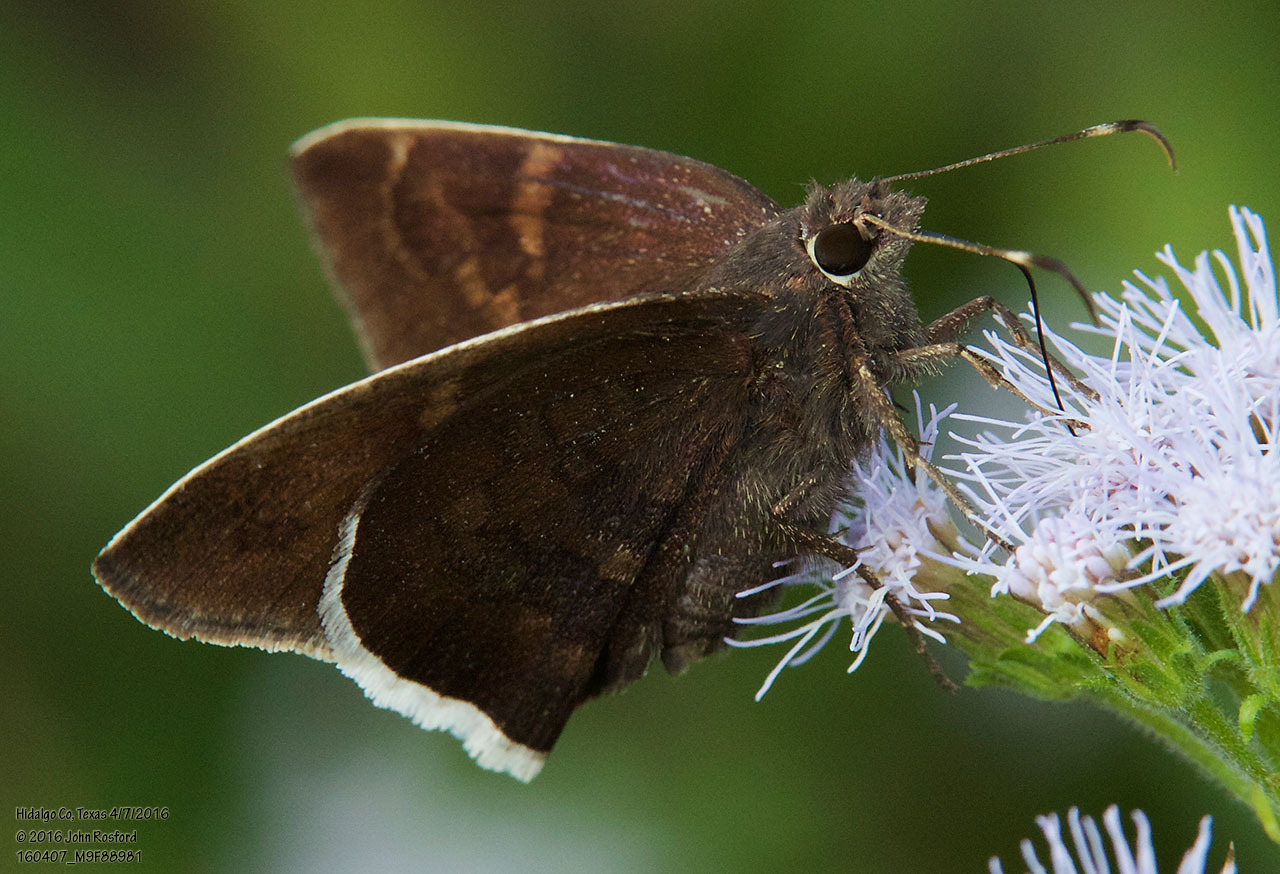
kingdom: Animalia
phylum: Arthropoda
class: Insecta
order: Lepidoptera
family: Hesperiidae
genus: Achalarus
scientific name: Achalarus Murgaria albociliatus
